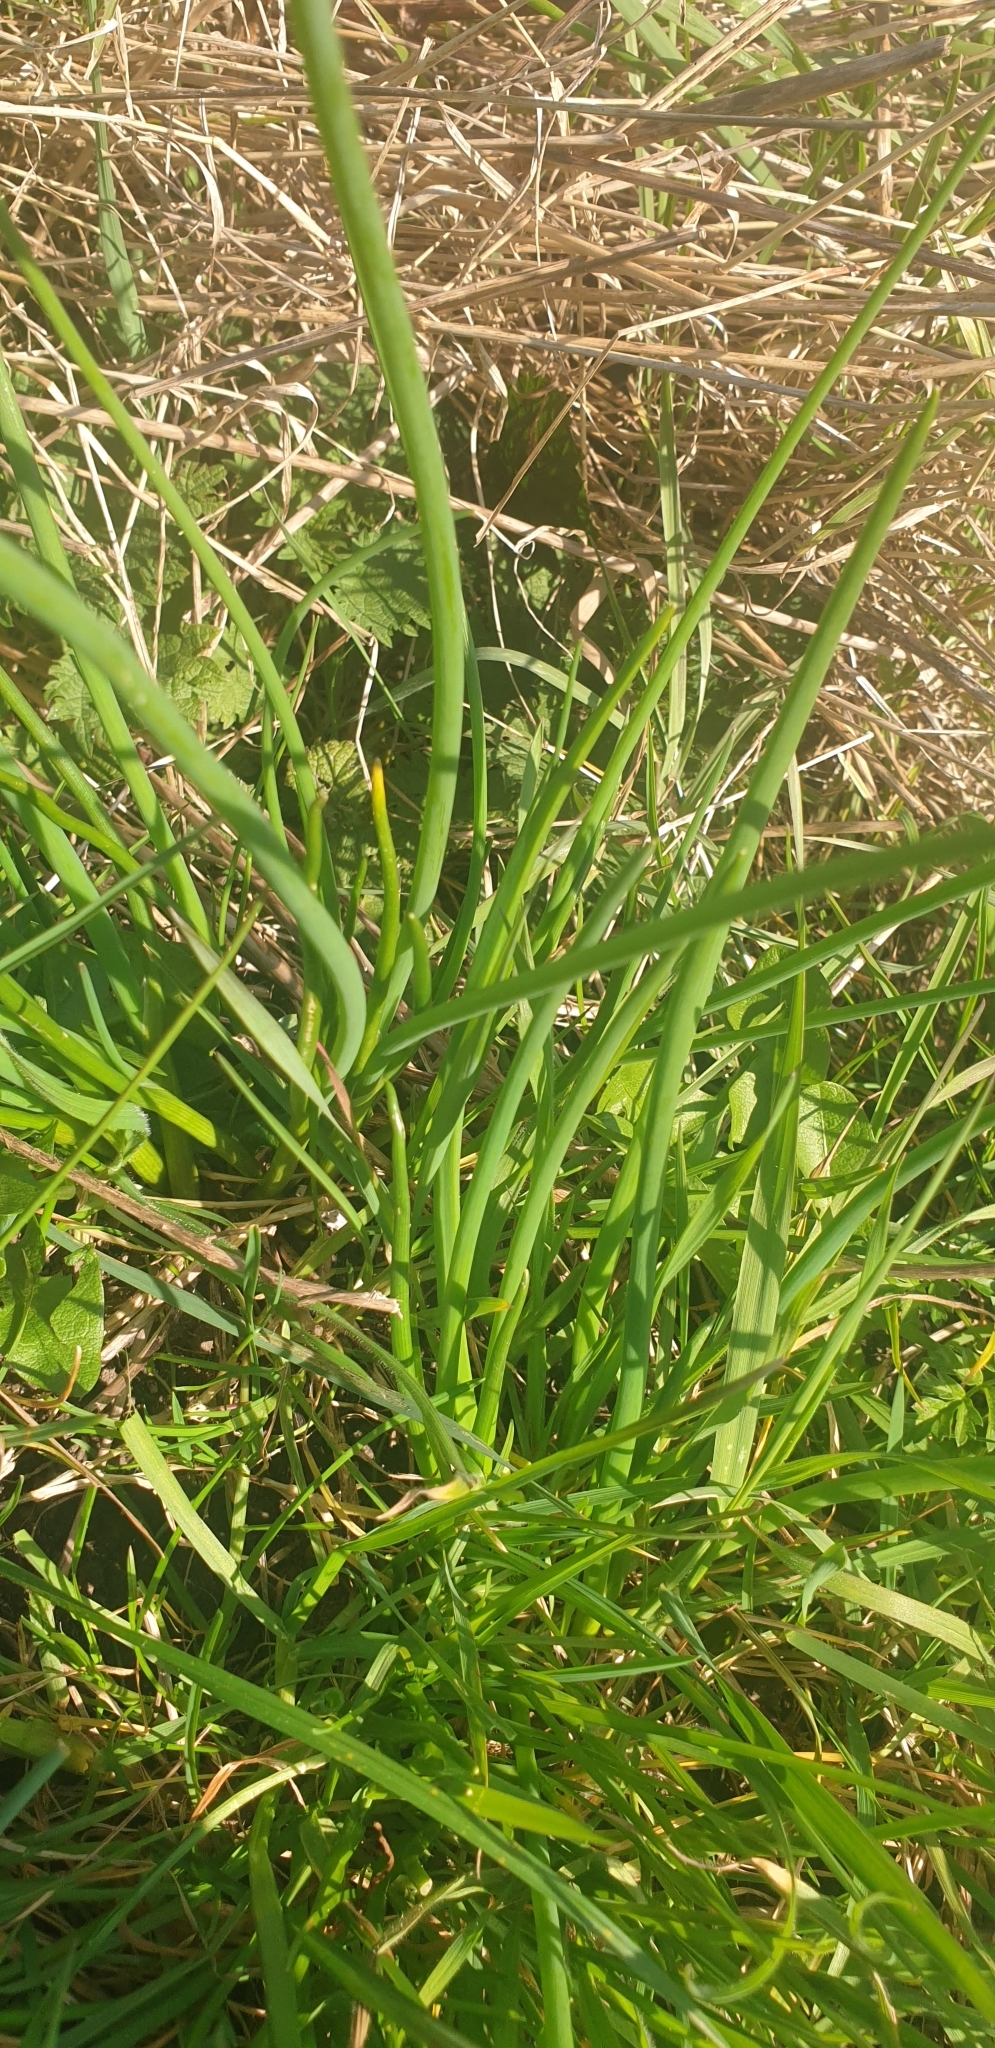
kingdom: Plantae
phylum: Tracheophyta
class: Liliopsida
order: Asparagales
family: Amaryllidaceae
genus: Allium
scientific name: Allium schoenoprasum
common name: Chives
